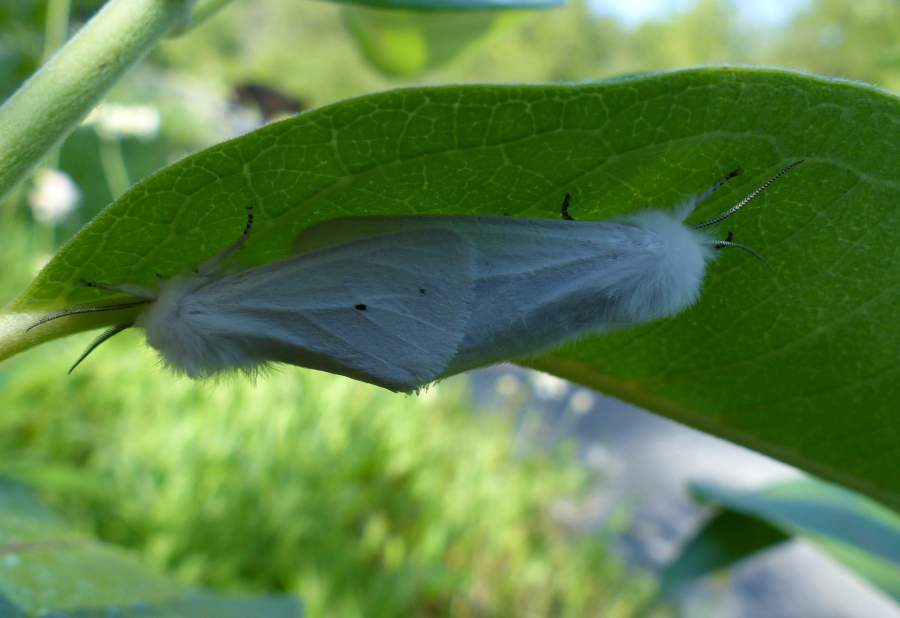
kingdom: Animalia
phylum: Arthropoda
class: Insecta
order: Lepidoptera
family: Erebidae
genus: Spilosoma
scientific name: Spilosoma virginica
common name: Virginia tiger moth
